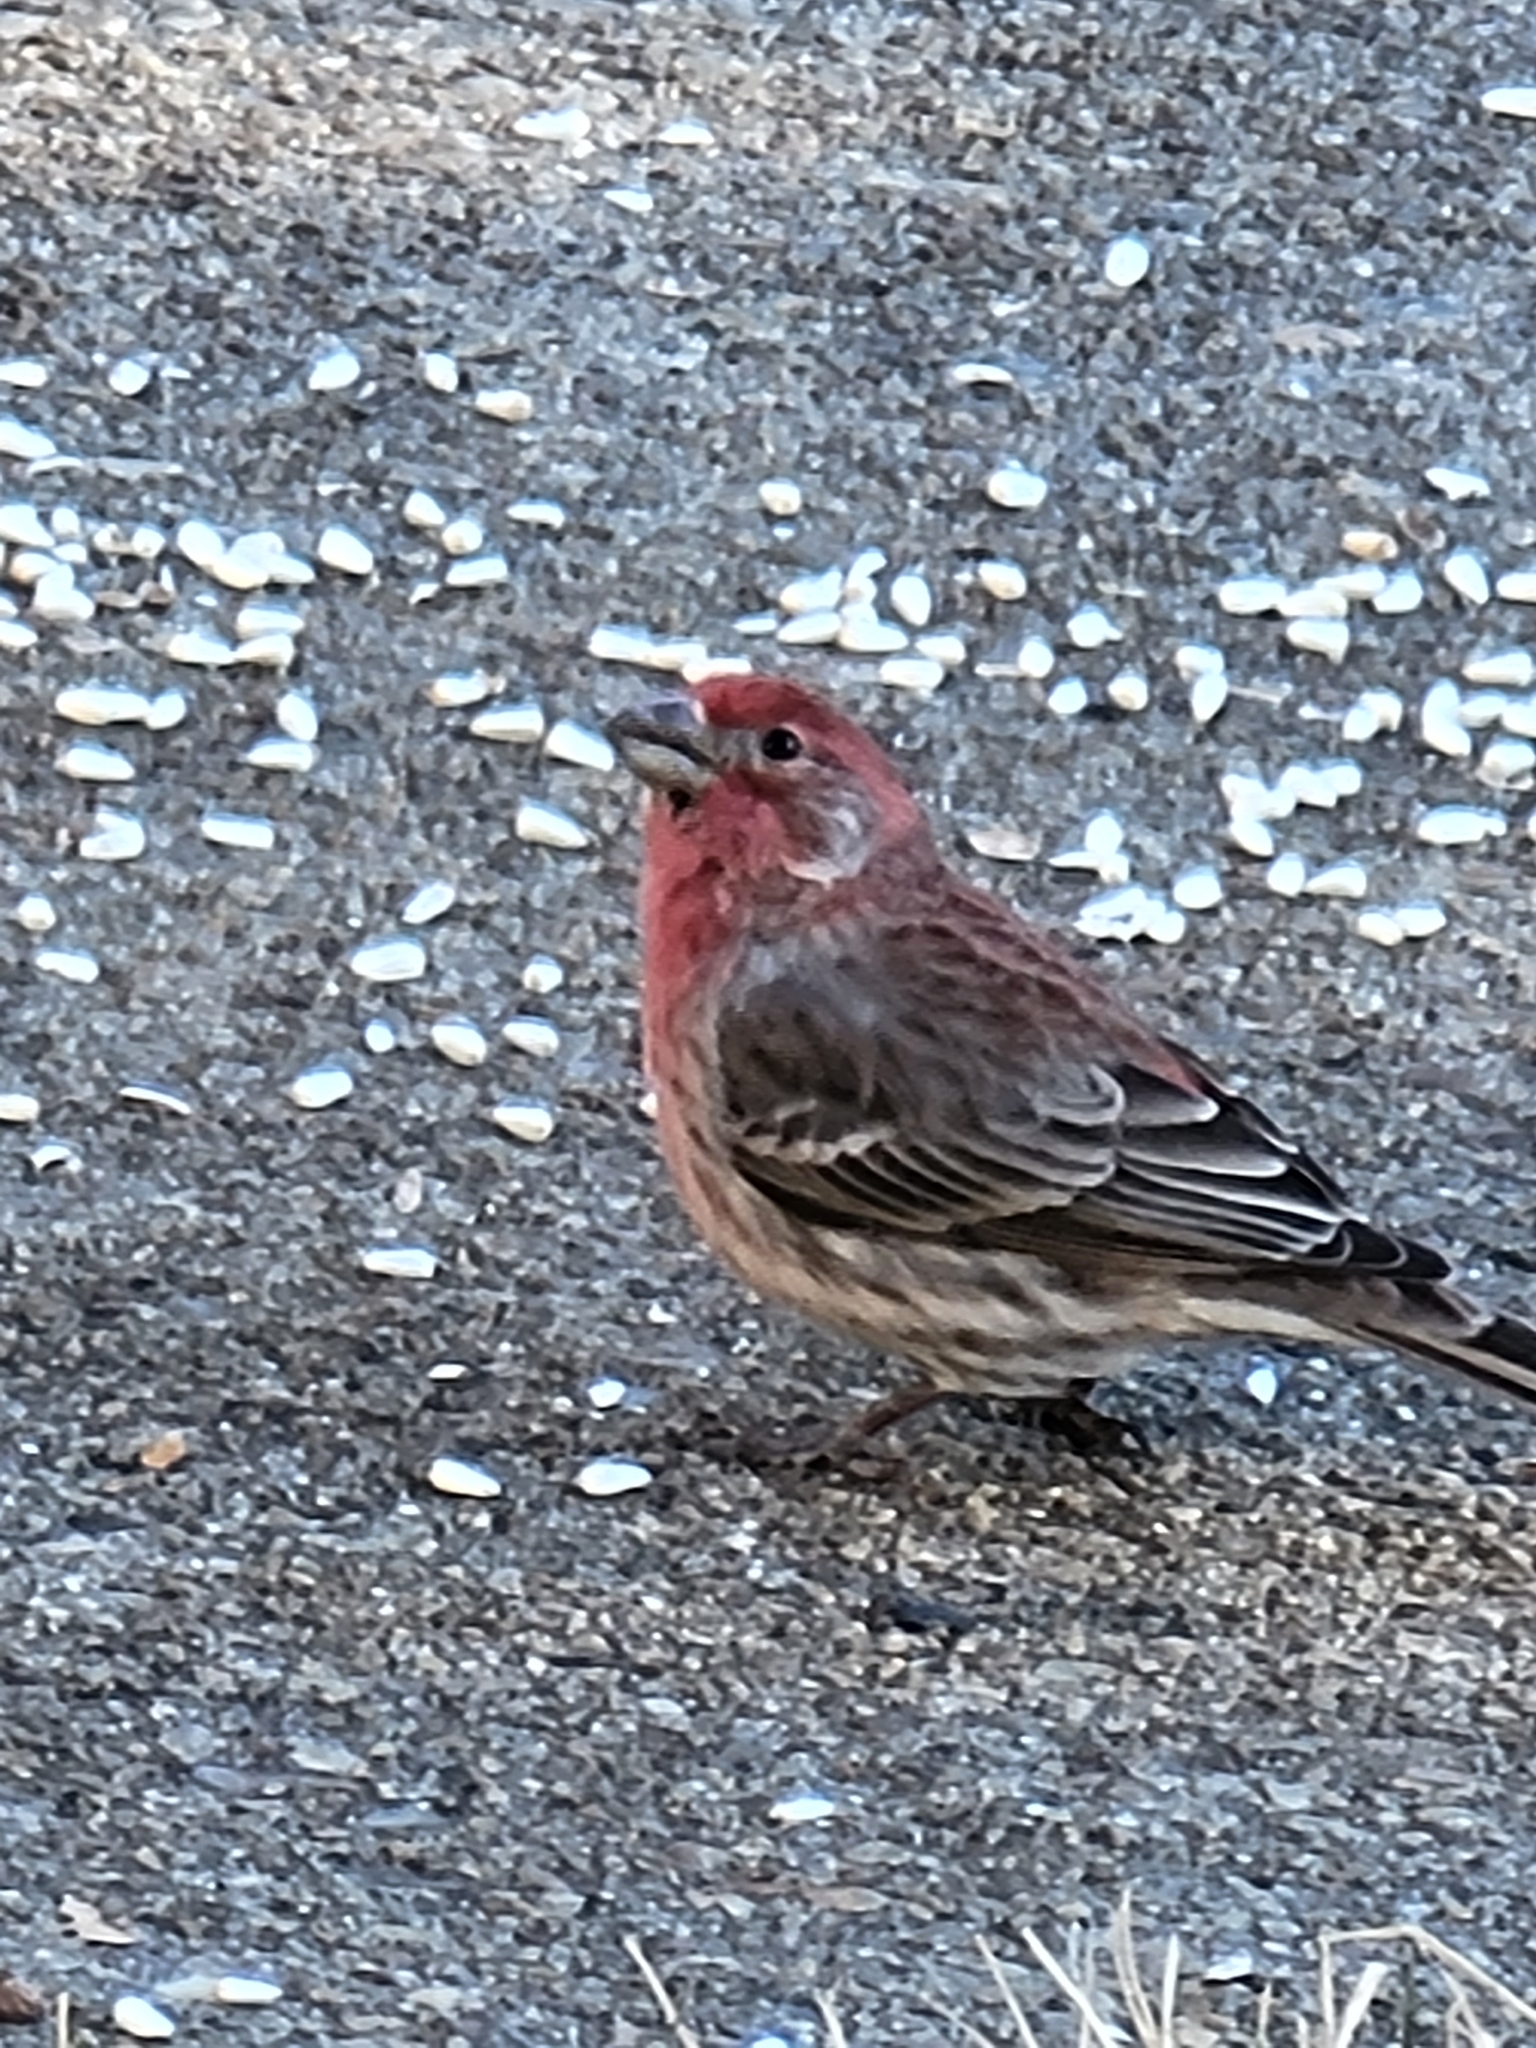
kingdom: Animalia
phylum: Chordata
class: Aves
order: Passeriformes
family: Fringillidae
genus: Haemorhous
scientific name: Haemorhous mexicanus
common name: House finch
